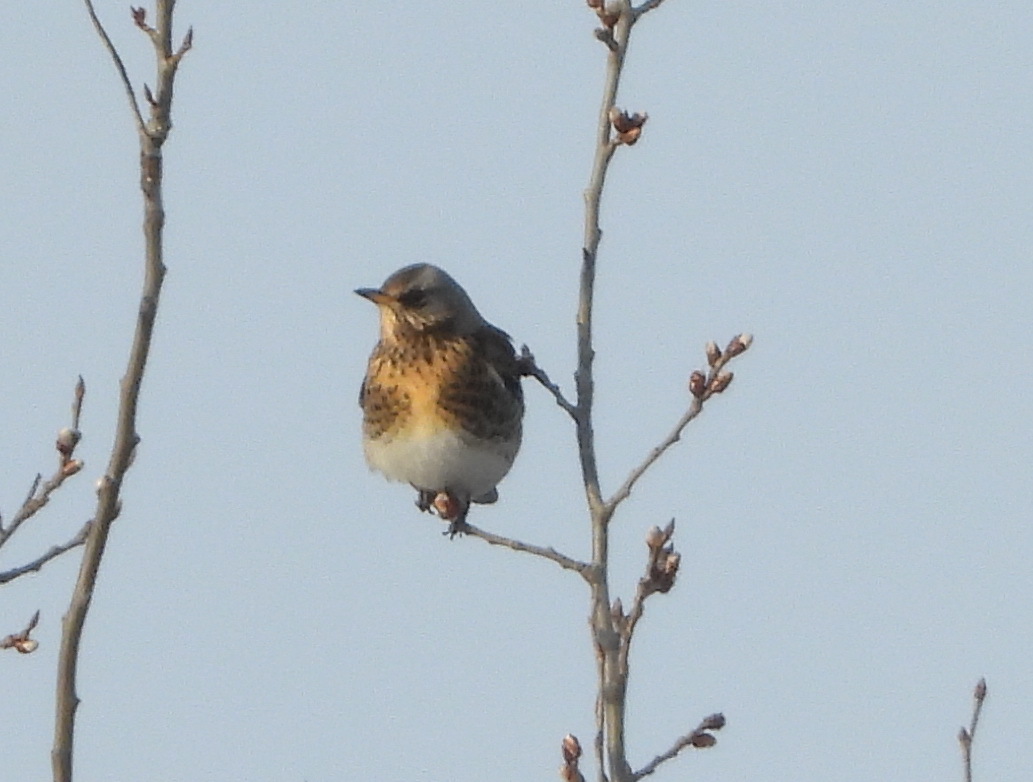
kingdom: Animalia
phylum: Chordata
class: Aves
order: Passeriformes
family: Turdidae
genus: Turdus
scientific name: Turdus pilaris
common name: Fieldfare
